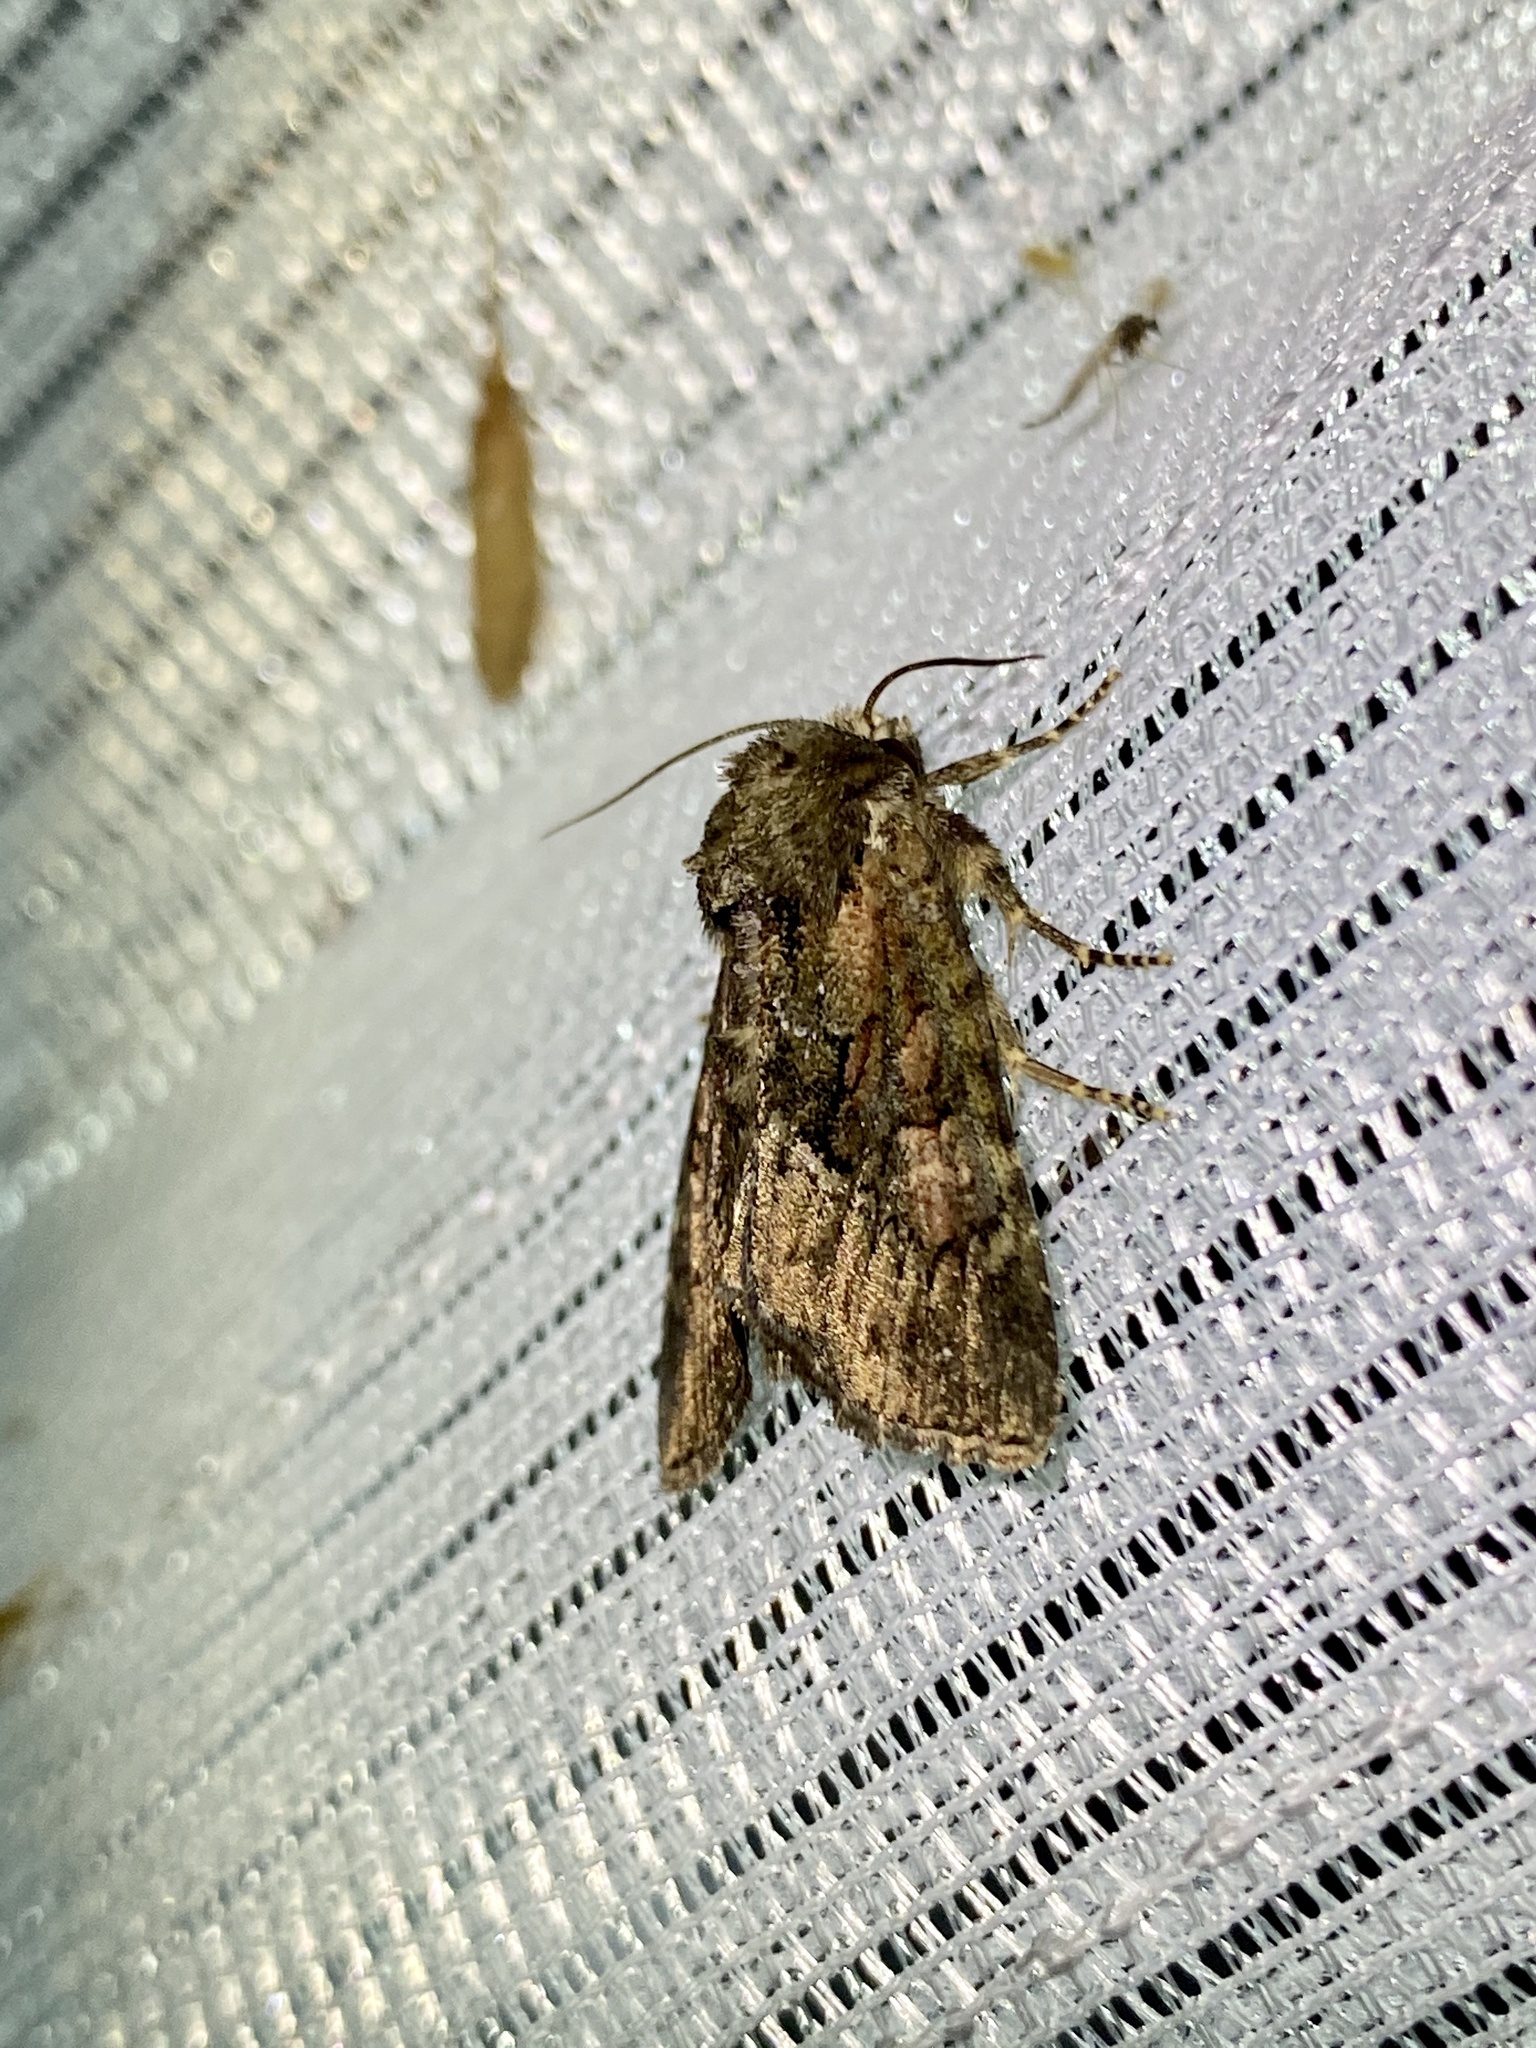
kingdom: Animalia
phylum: Arthropoda
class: Insecta
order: Lepidoptera
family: Noctuidae
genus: Antapamea
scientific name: Antapamea conciliata
